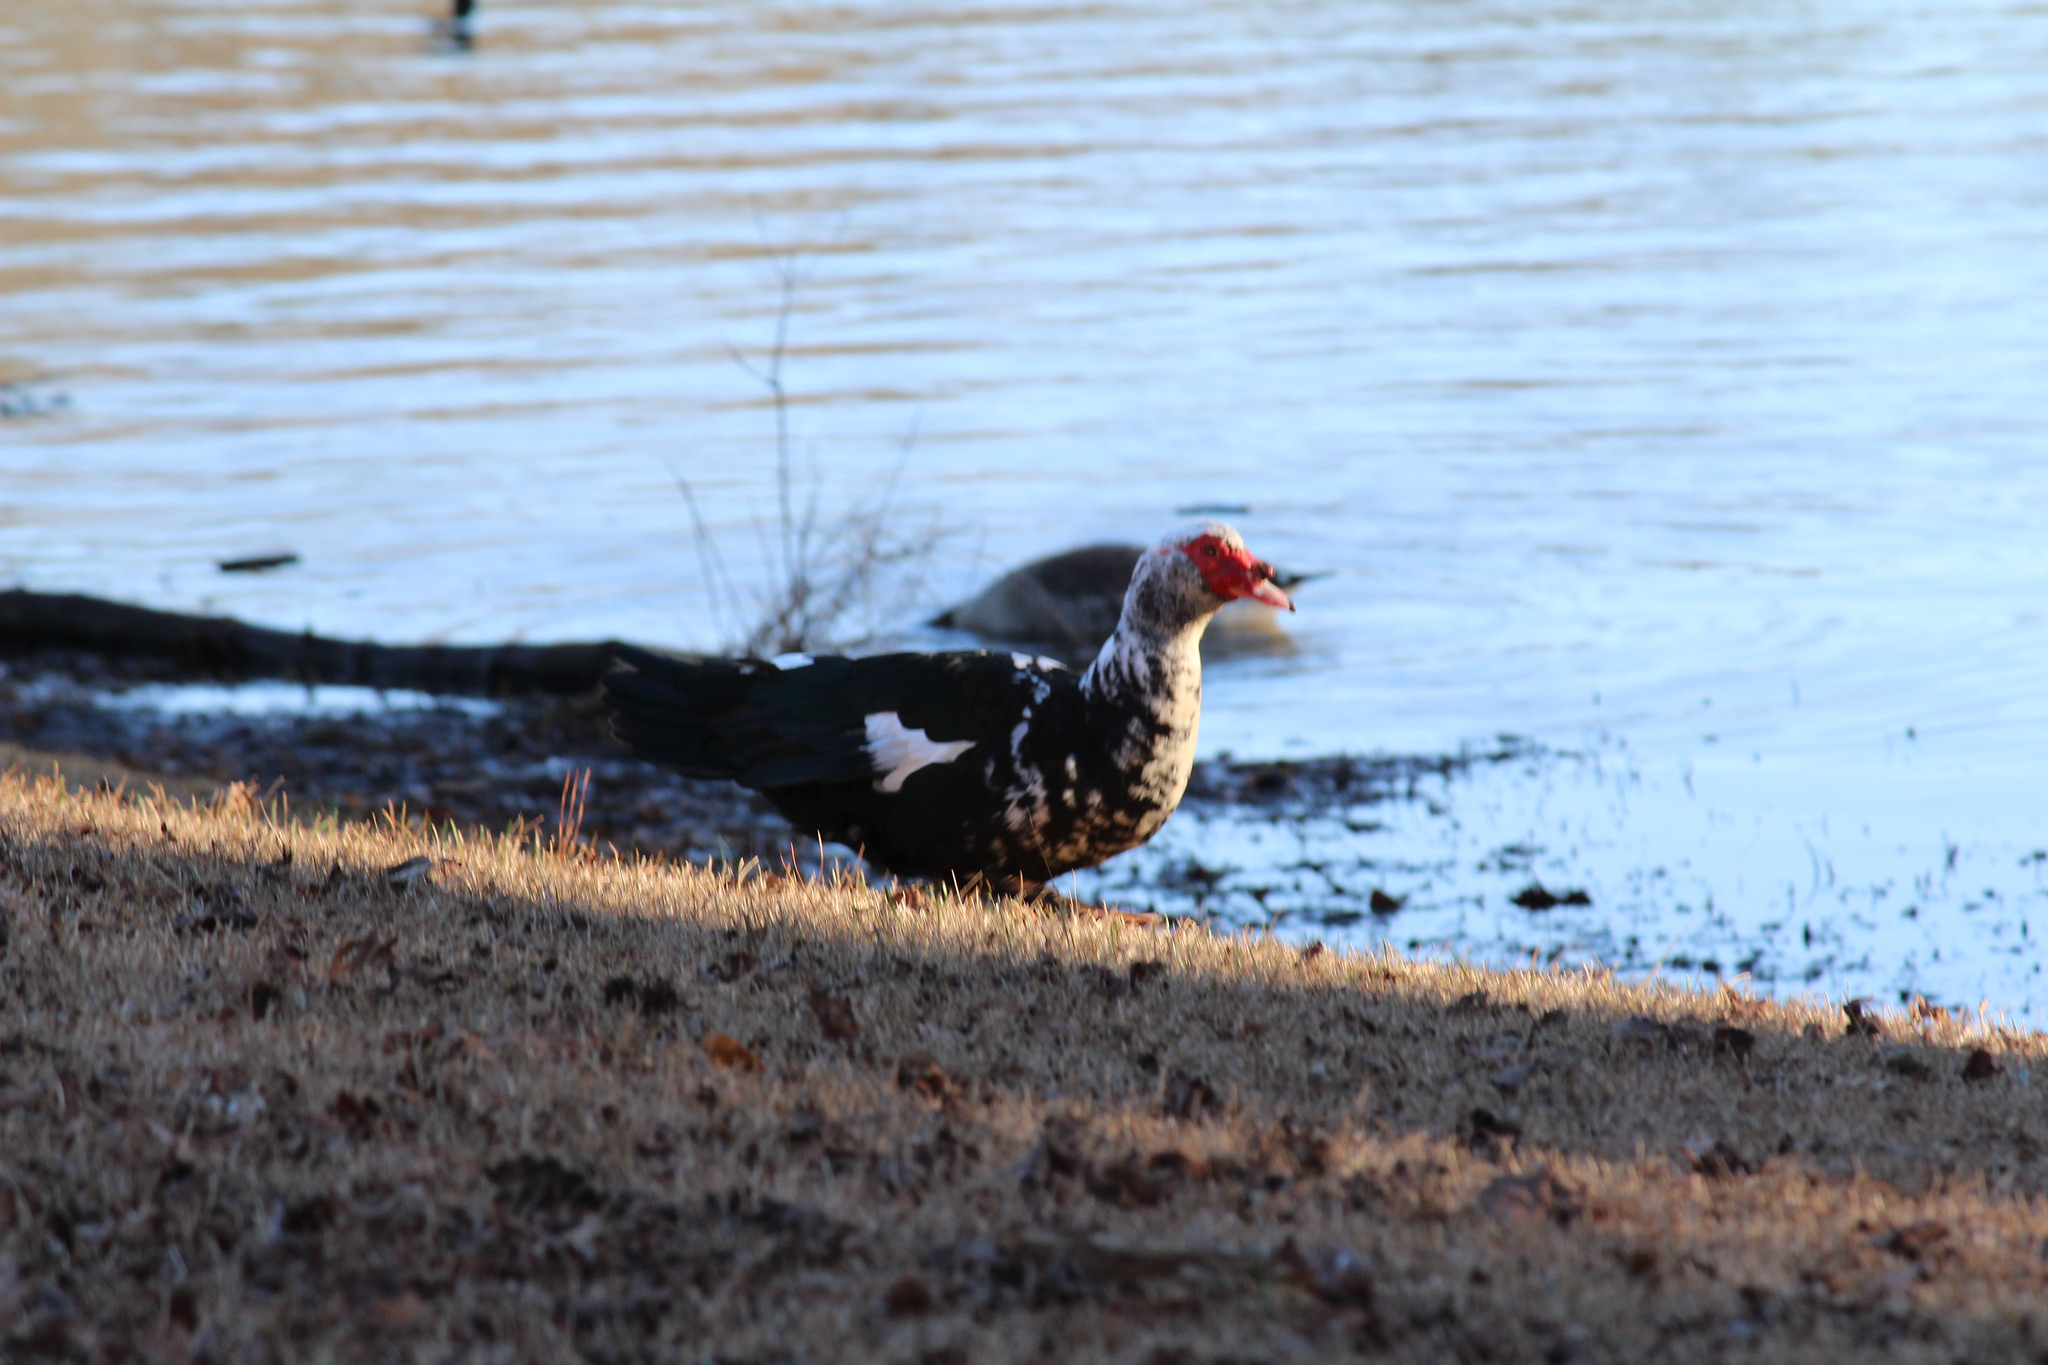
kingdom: Animalia
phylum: Chordata
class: Aves
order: Anseriformes
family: Anatidae
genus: Cairina
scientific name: Cairina moschata
